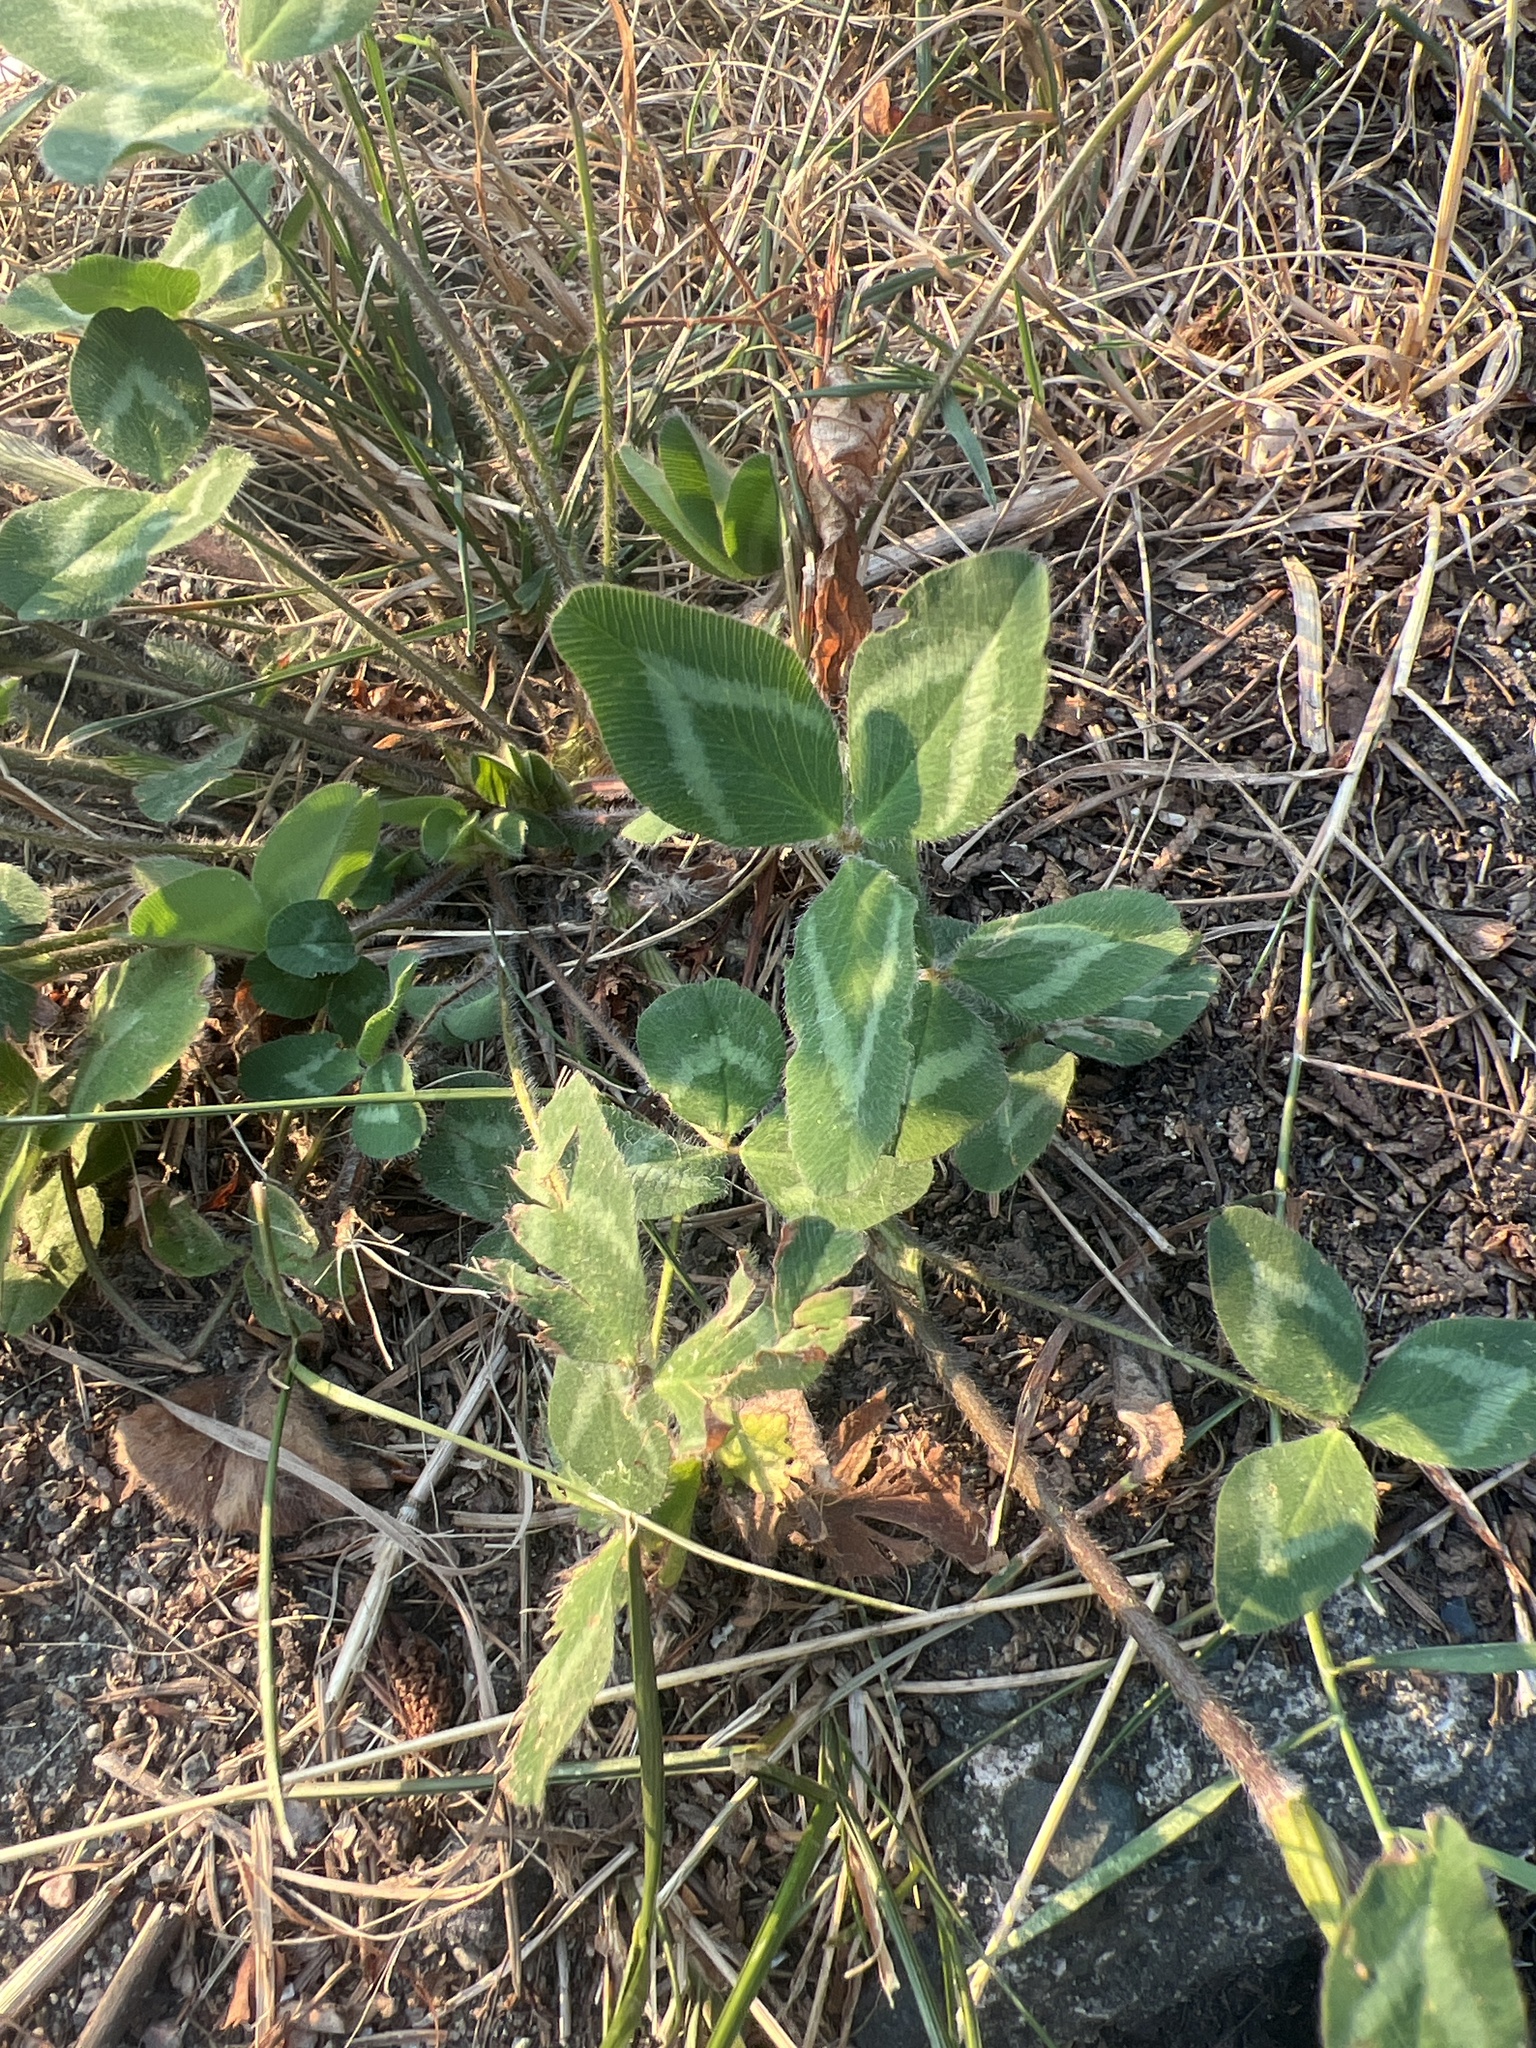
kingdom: Plantae
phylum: Tracheophyta
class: Magnoliopsida
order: Fabales
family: Fabaceae
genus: Trifolium
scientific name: Trifolium pratense
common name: Red clover
